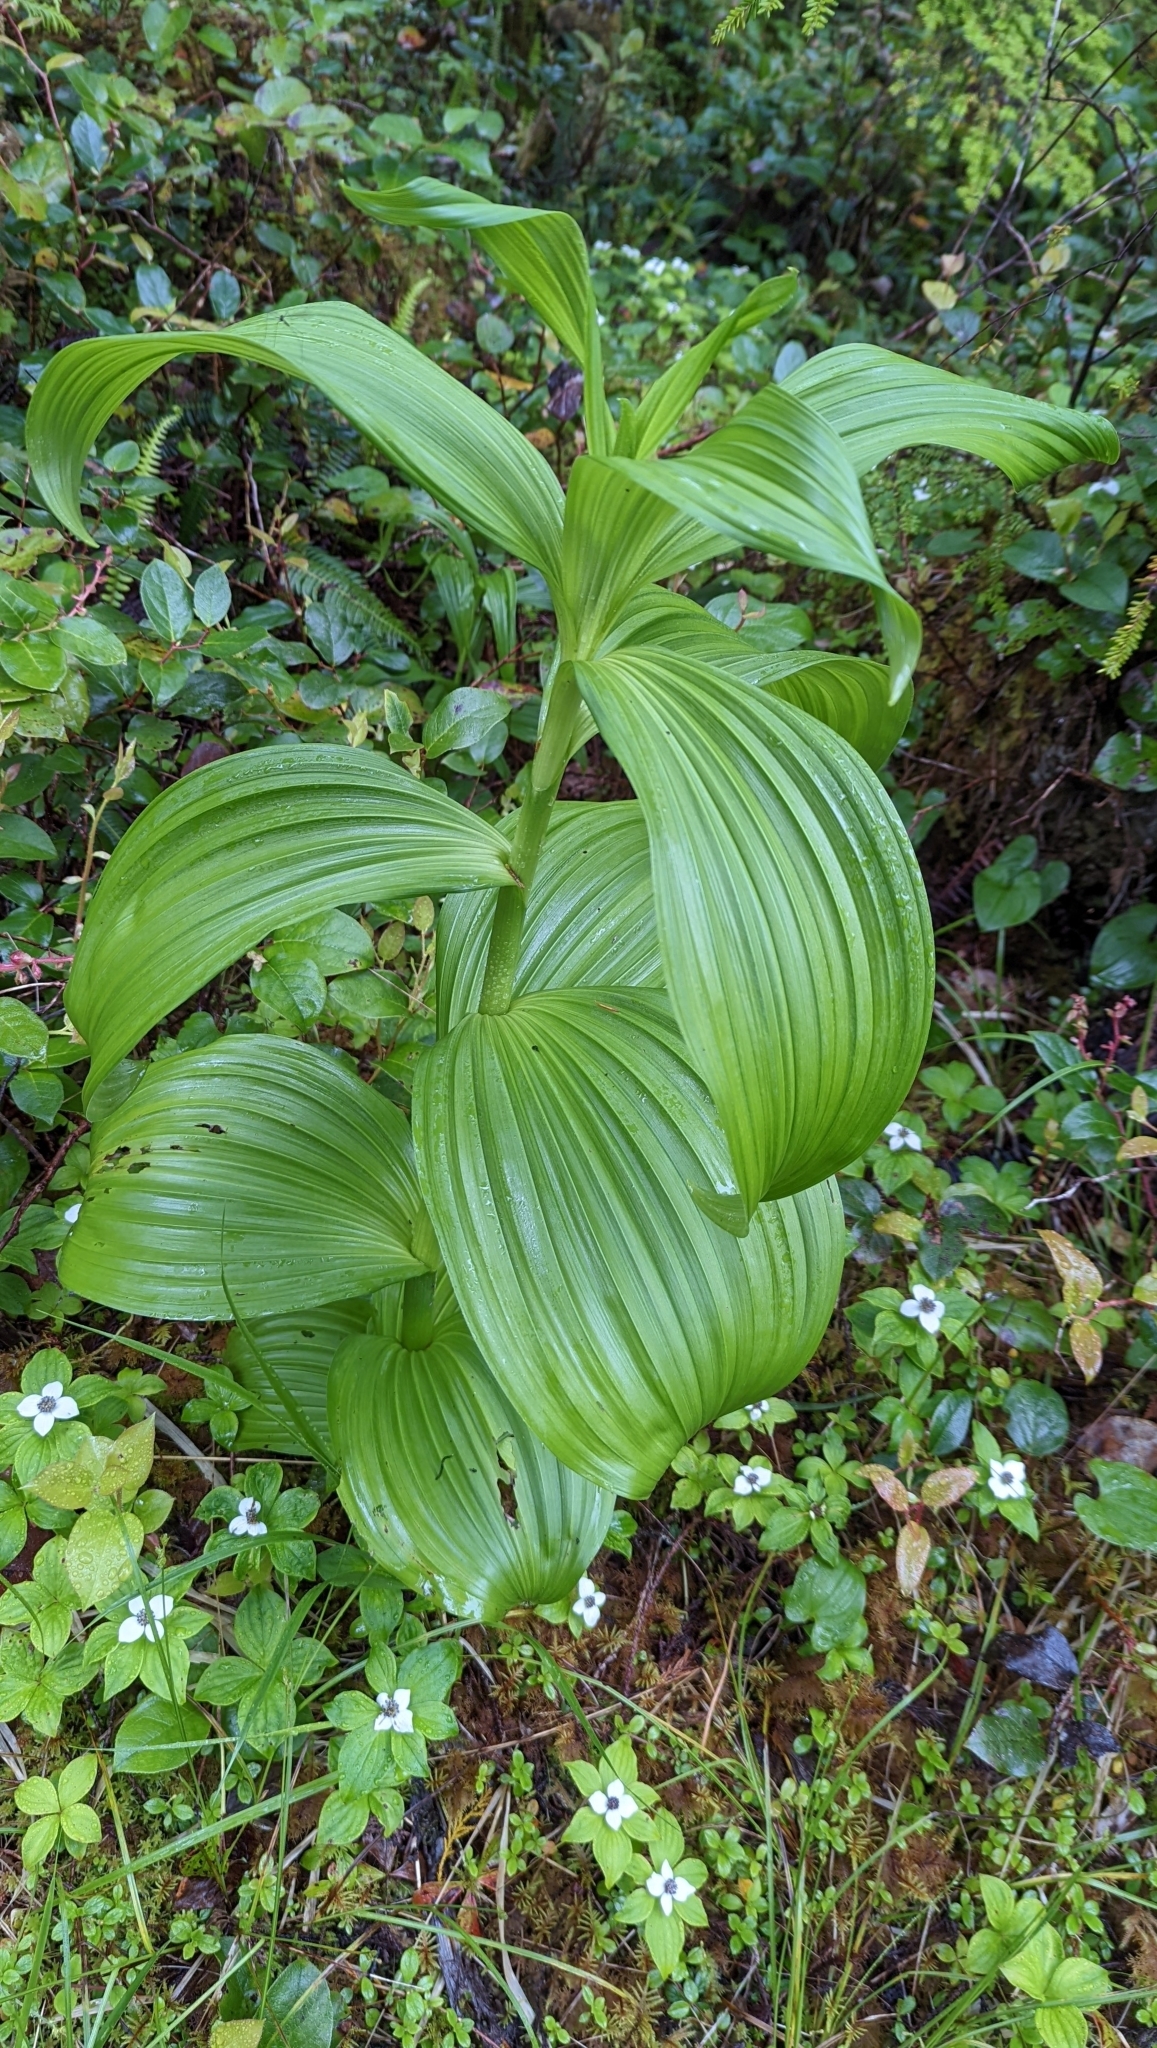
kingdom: Plantae
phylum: Tracheophyta
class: Liliopsida
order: Liliales
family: Melanthiaceae
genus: Veratrum
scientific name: Veratrum viride
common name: American false hellebore
